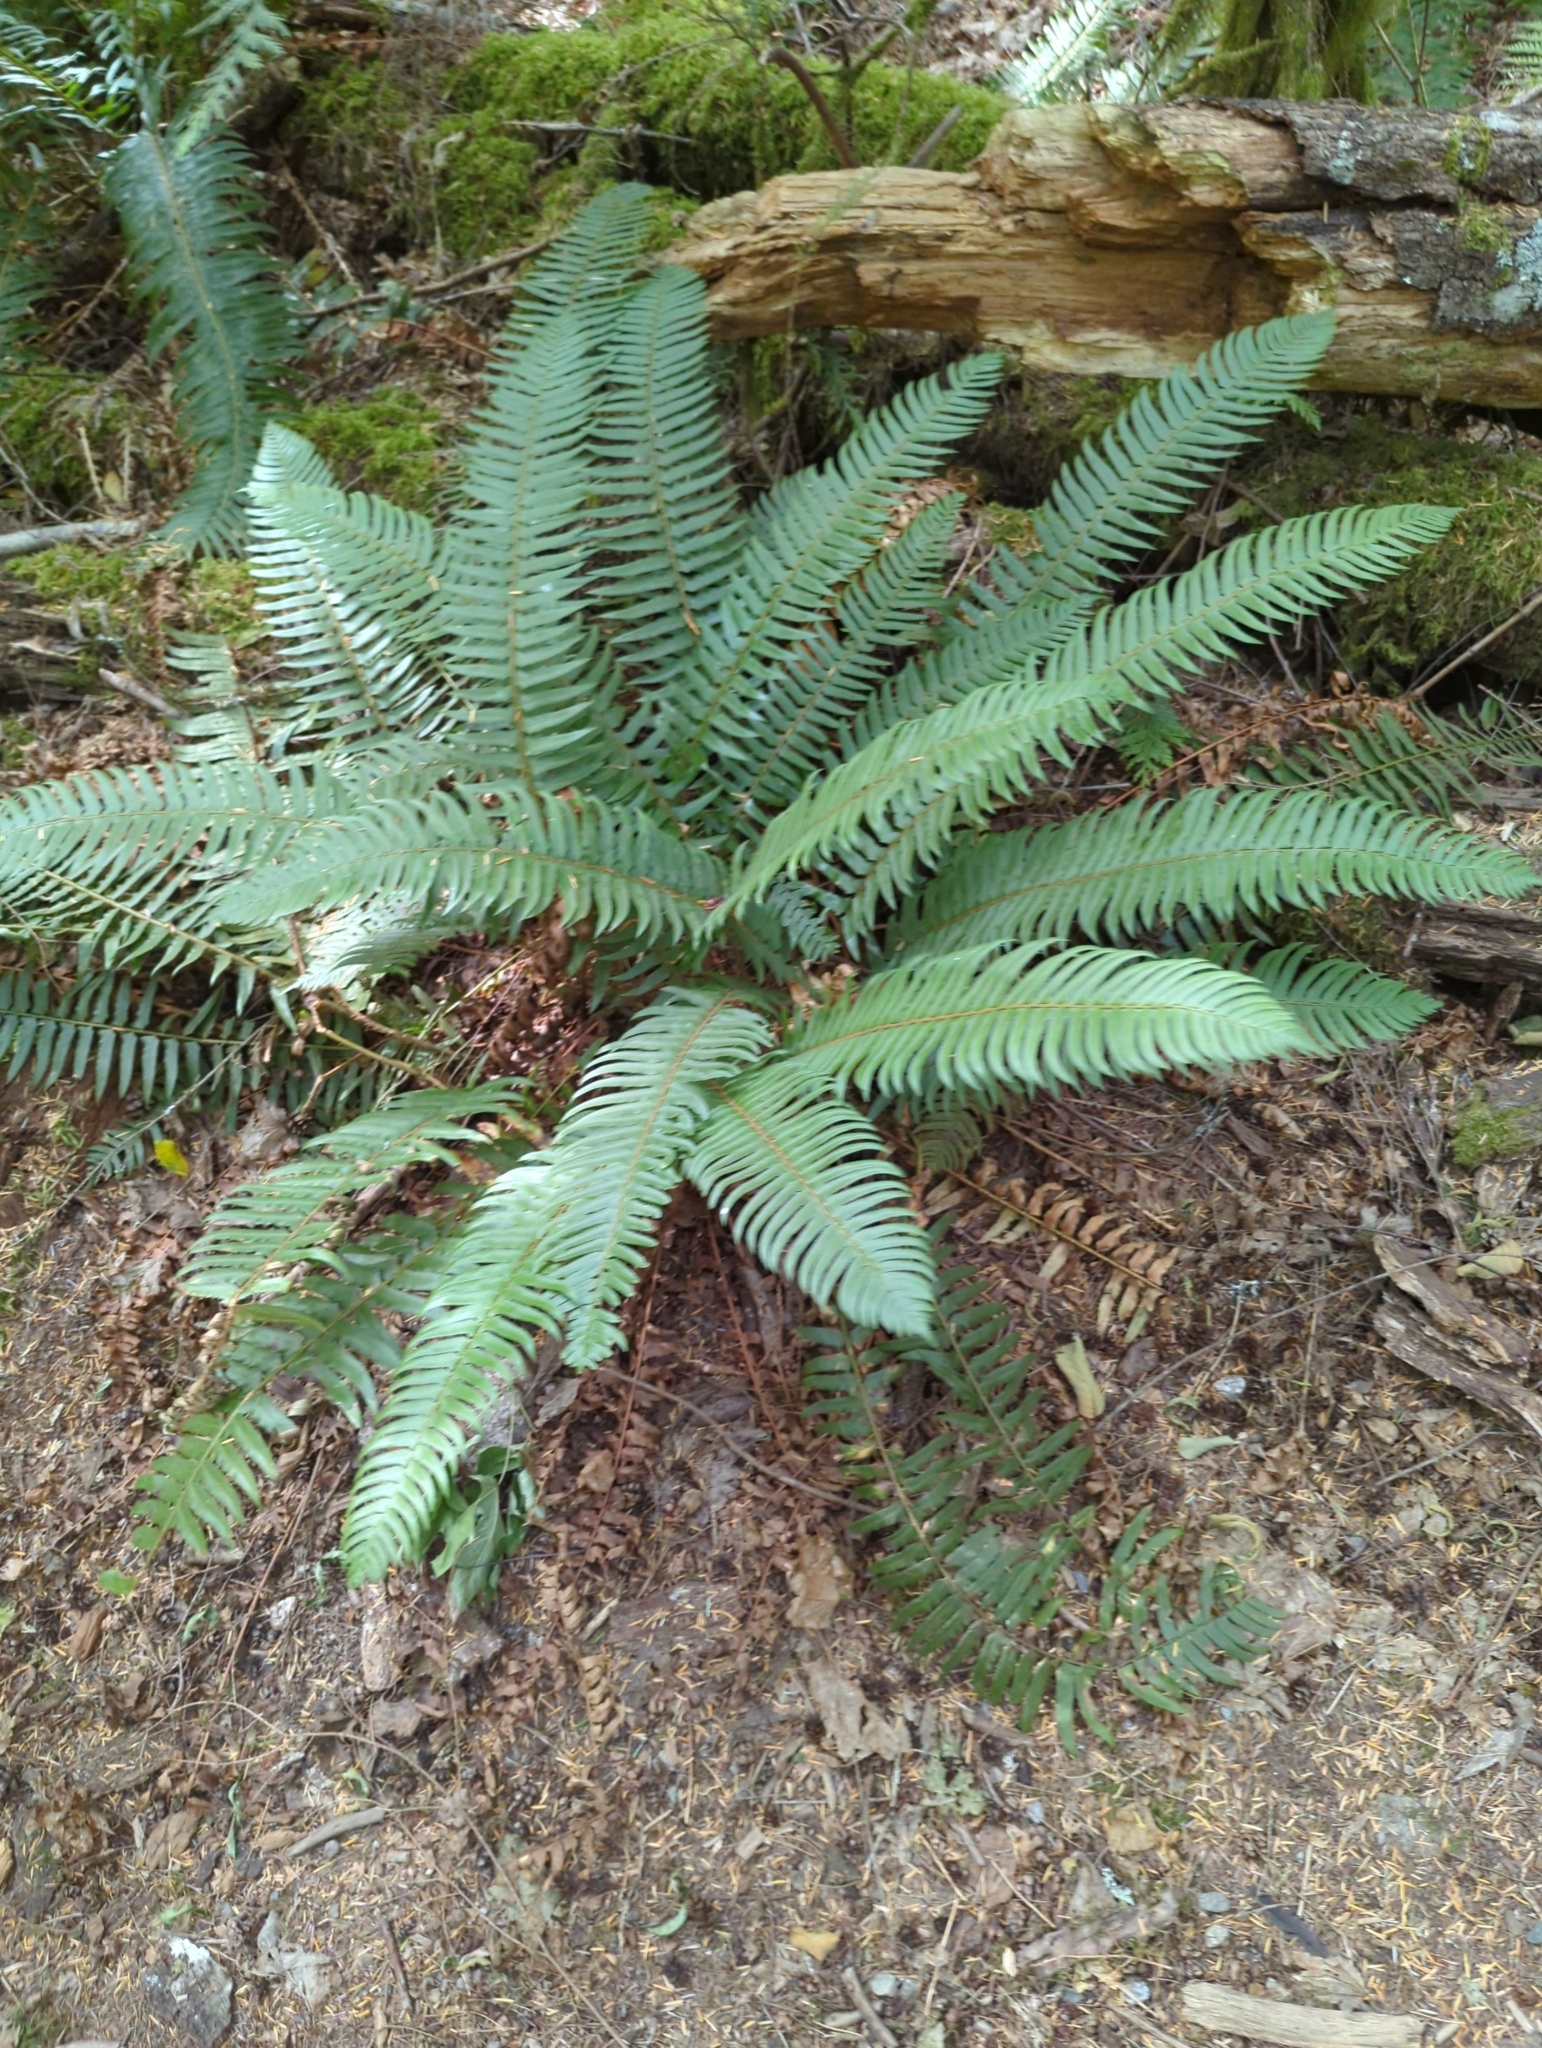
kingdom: Plantae
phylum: Tracheophyta
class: Polypodiopsida
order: Polypodiales
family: Dryopteridaceae
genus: Polystichum
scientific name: Polystichum munitum
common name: Western sword-fern
